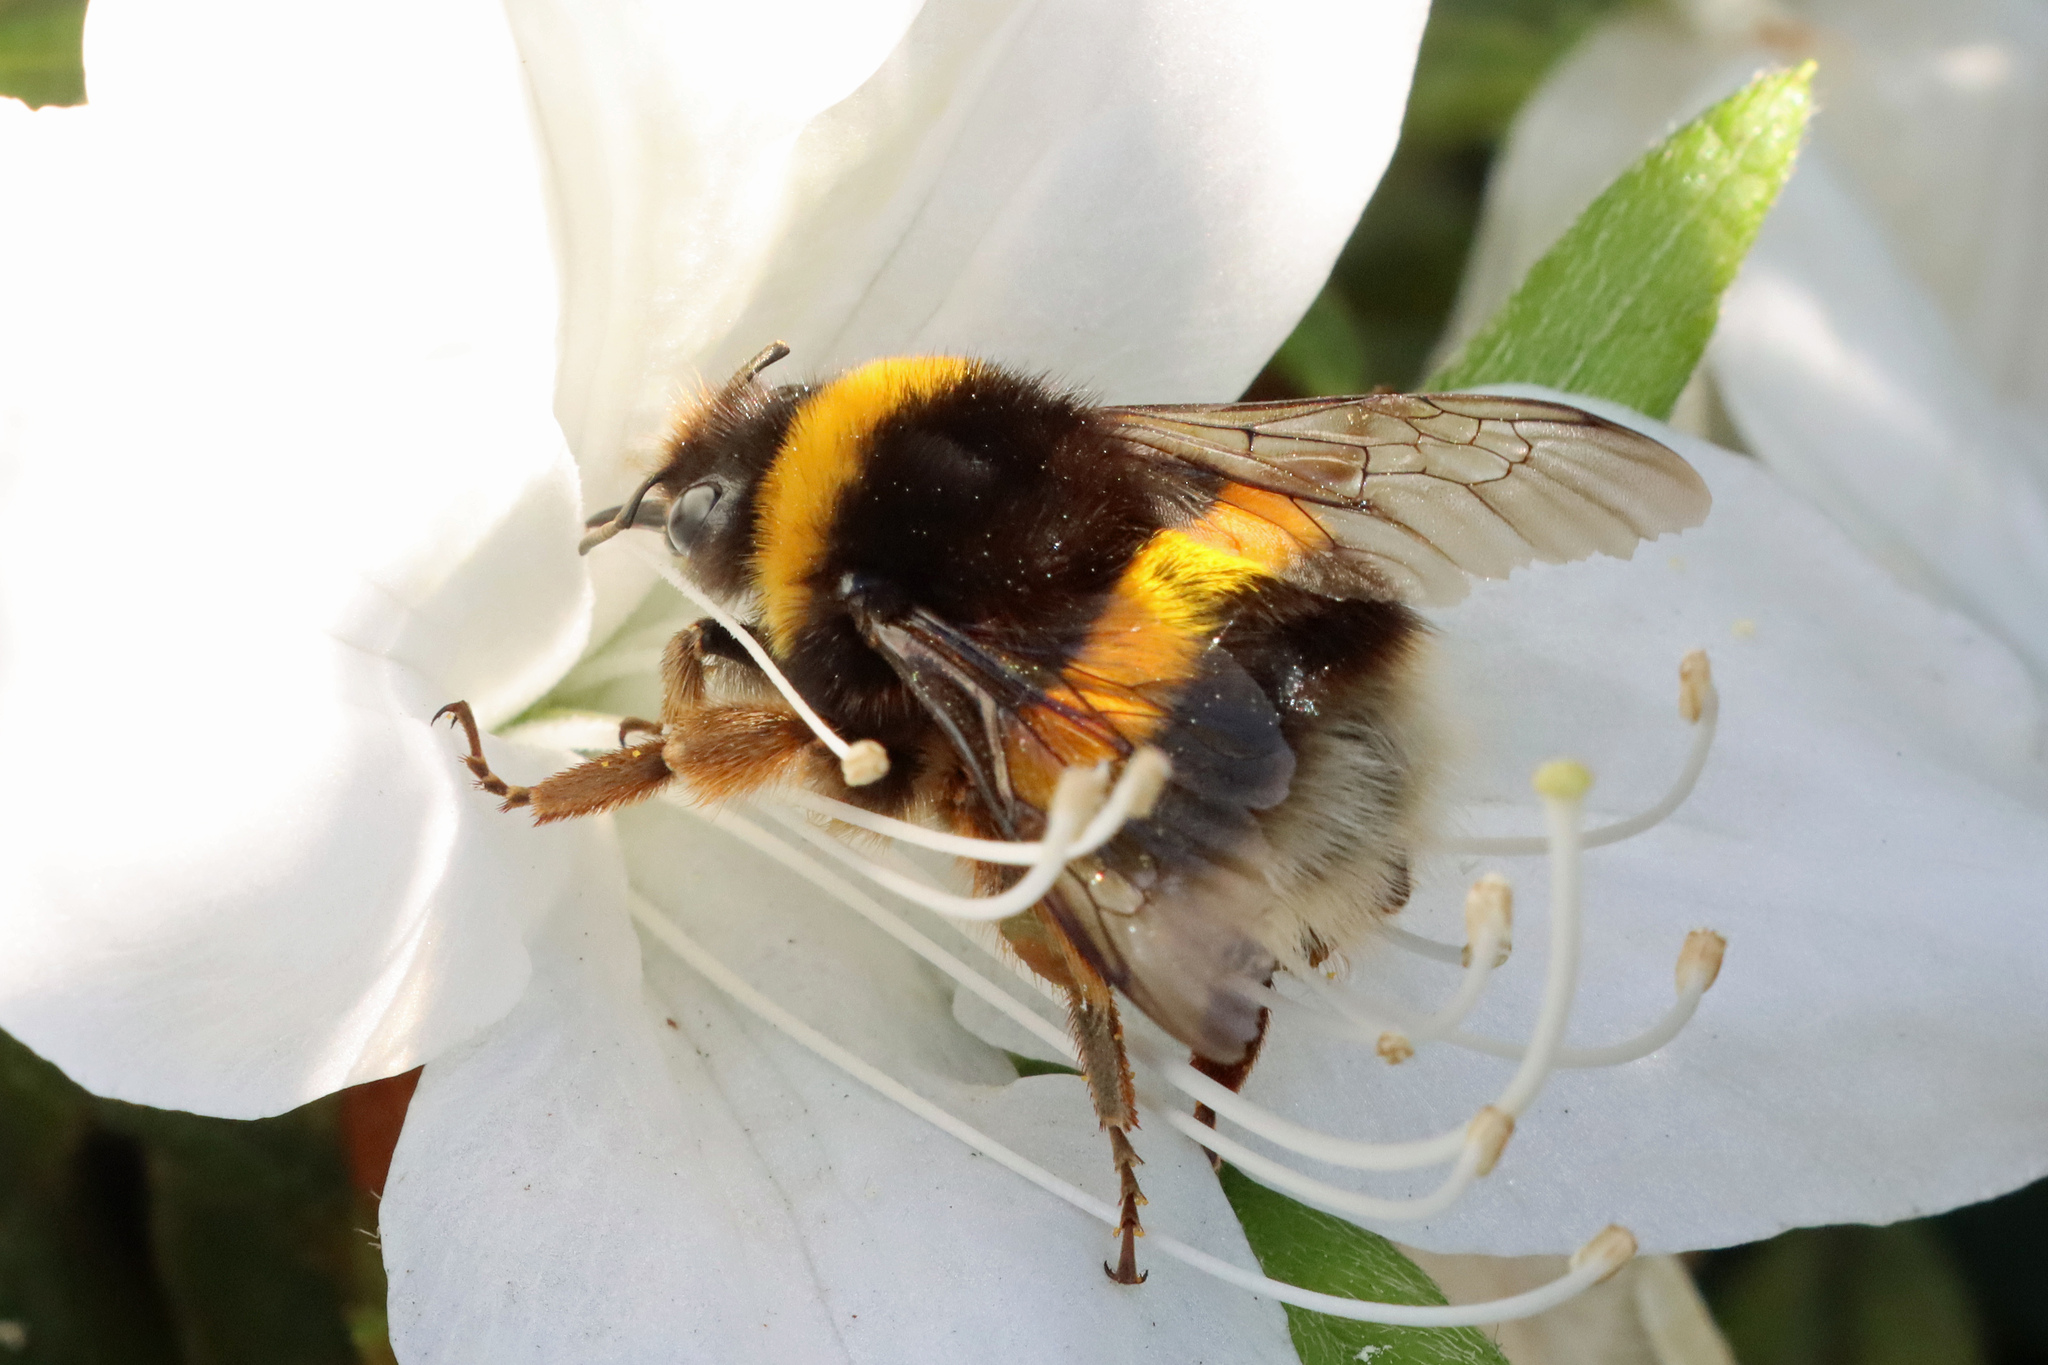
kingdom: Animalia
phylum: Arthropoda
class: Insecta
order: Hymenoptera
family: Apidae
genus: Bombus
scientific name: Bombus terrestris
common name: Buff-tailed bumblebee
